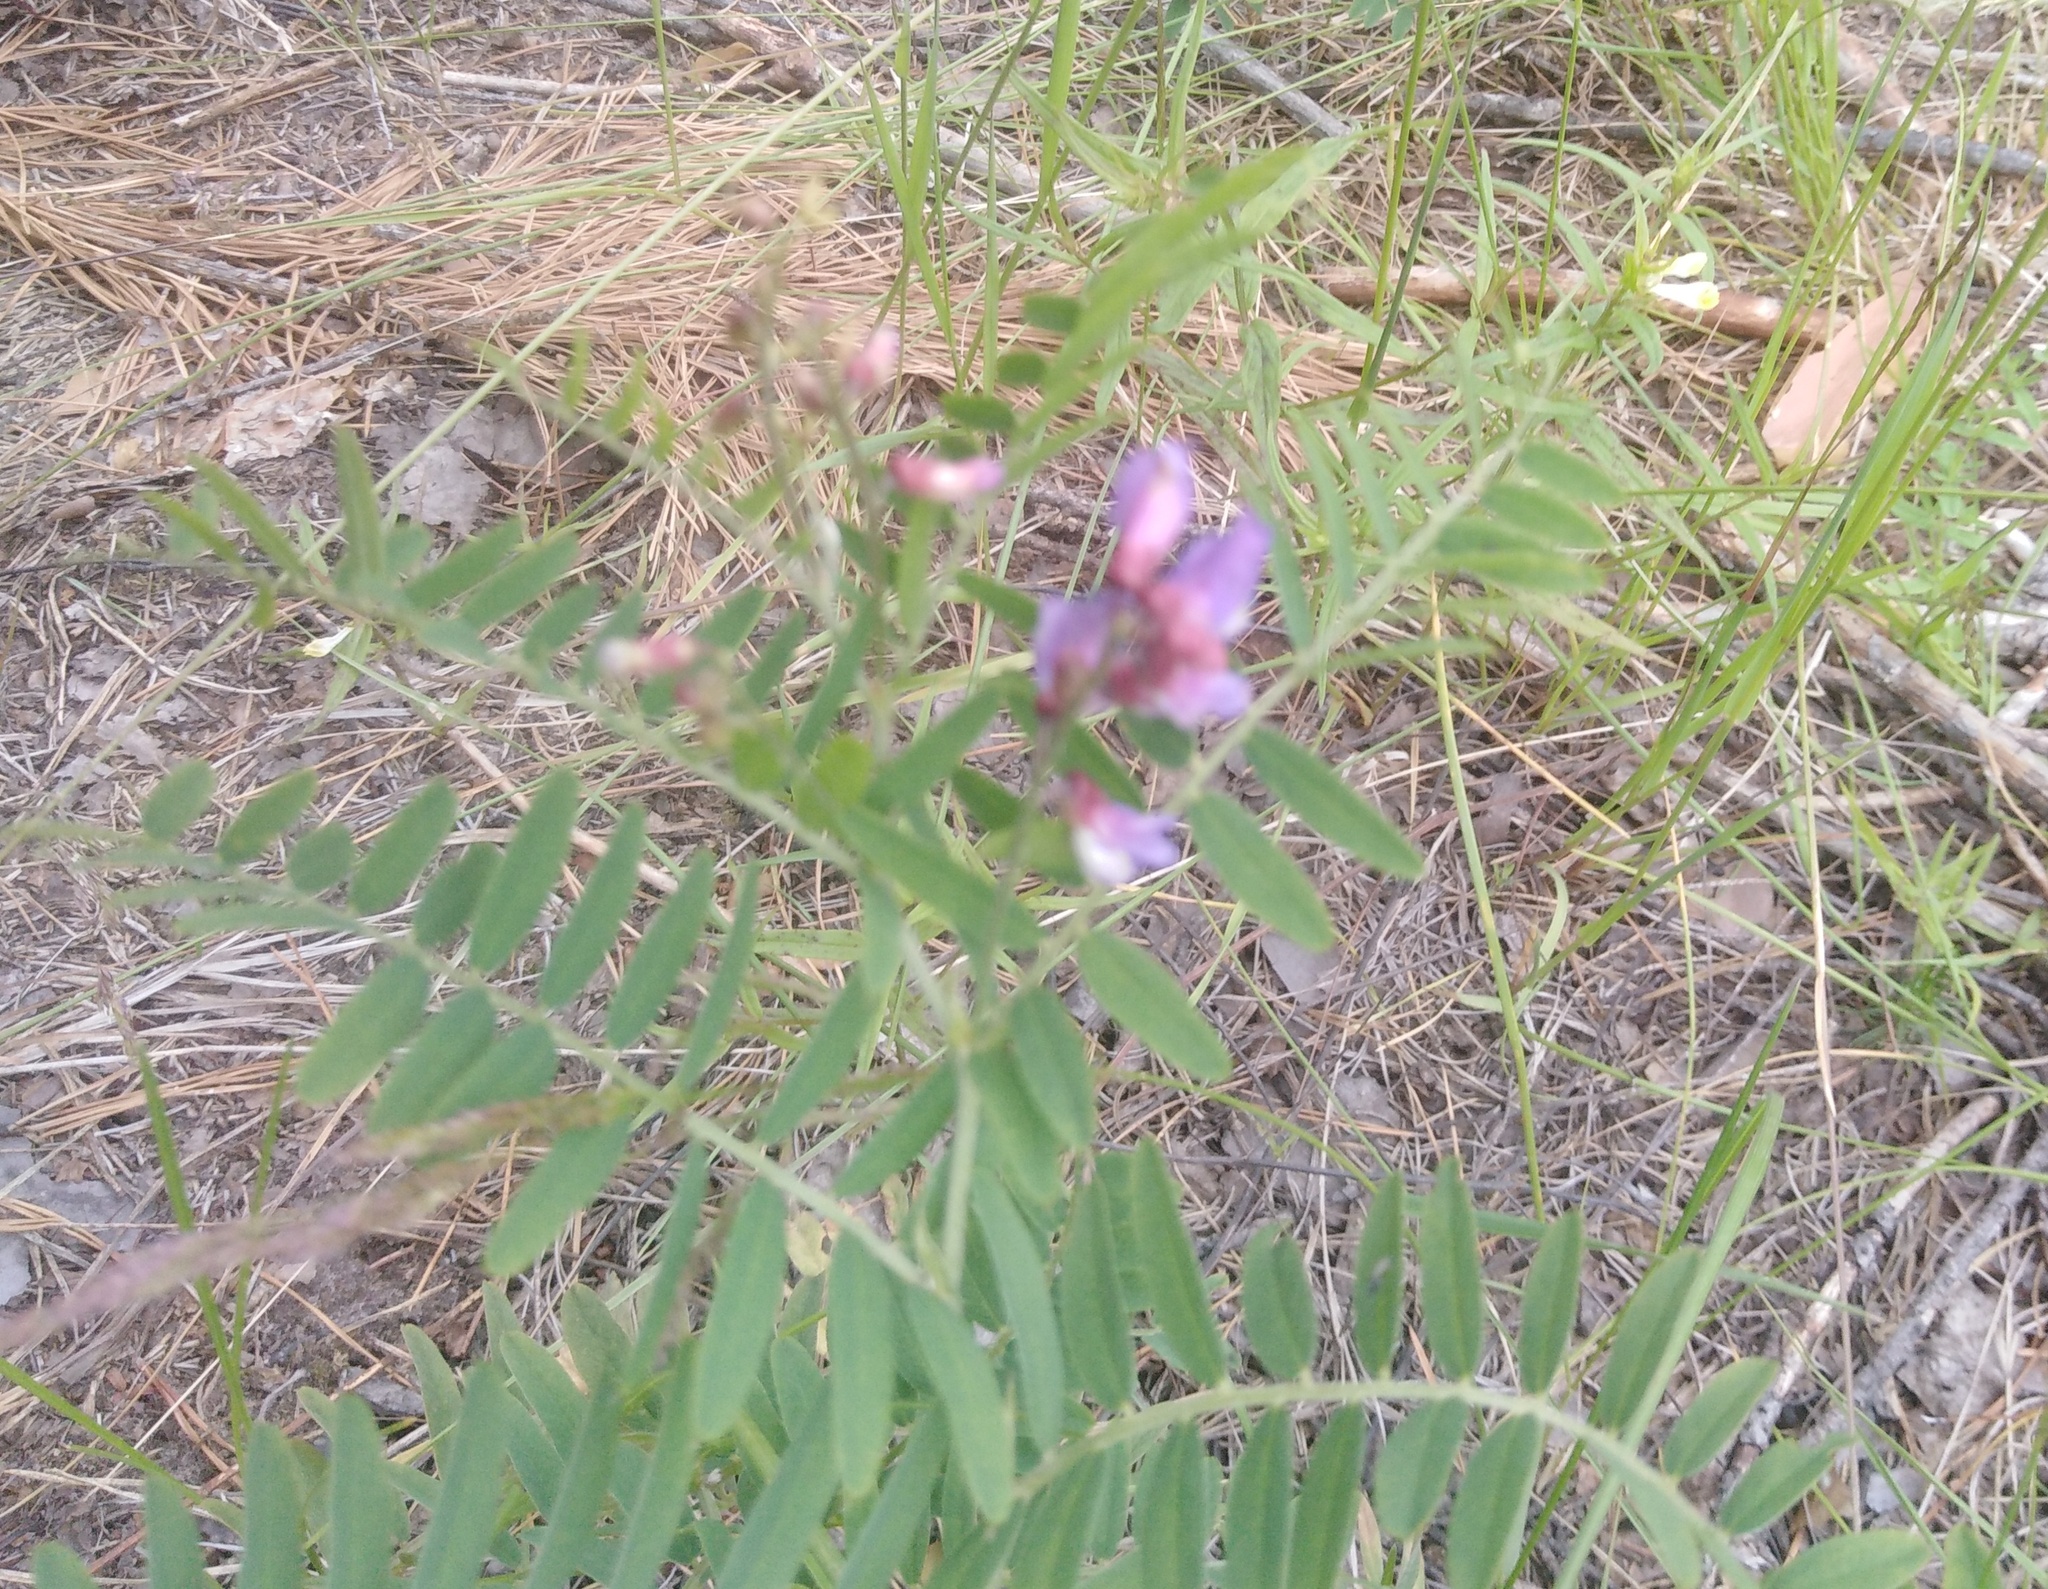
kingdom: Plantae
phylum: Tracheophyta
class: Magnoliopsida
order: Fabales
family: Fabaceae
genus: Vicia
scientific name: Vicia cassubica
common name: Danzig vetch
